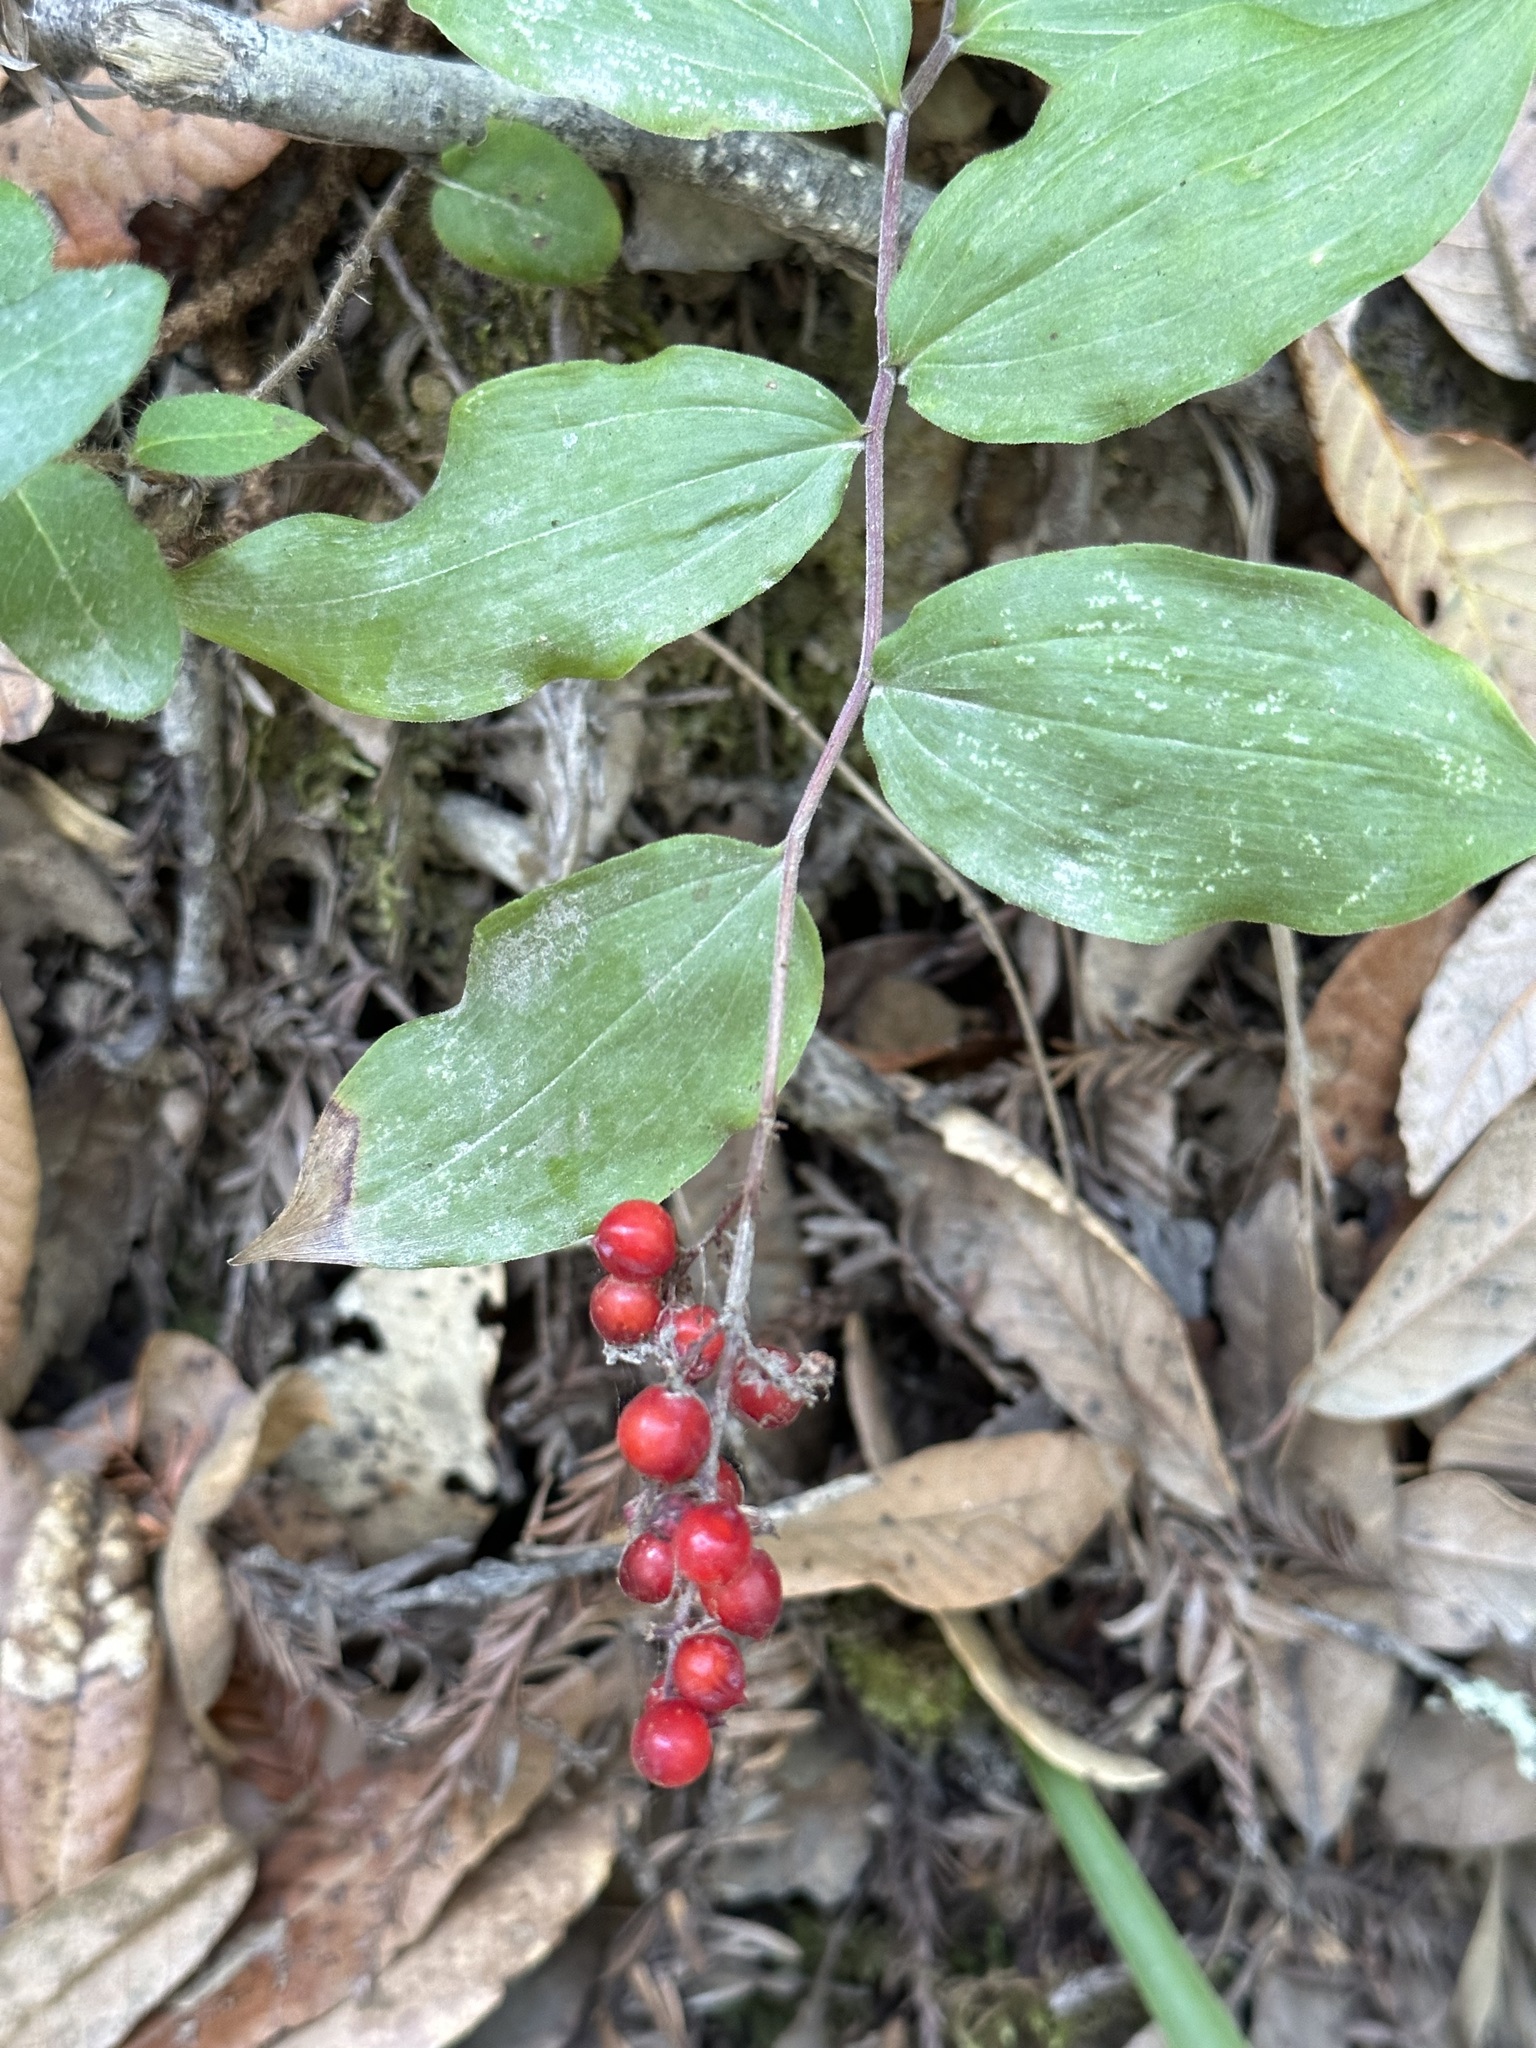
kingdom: Plantae
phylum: Tracheophyta
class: Liliopsida
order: Asparagales
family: Asparagaceae
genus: Maianthemum
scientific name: Maianthemum racemosum
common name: False spikenard
